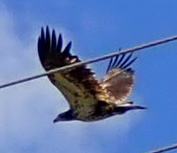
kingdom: Animalia
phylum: Chordata
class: Aves
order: Accipitriformes
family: Accipitridae
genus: Haliaeetus
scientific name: Haliaeetus leucocephalus
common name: Bald eagle
